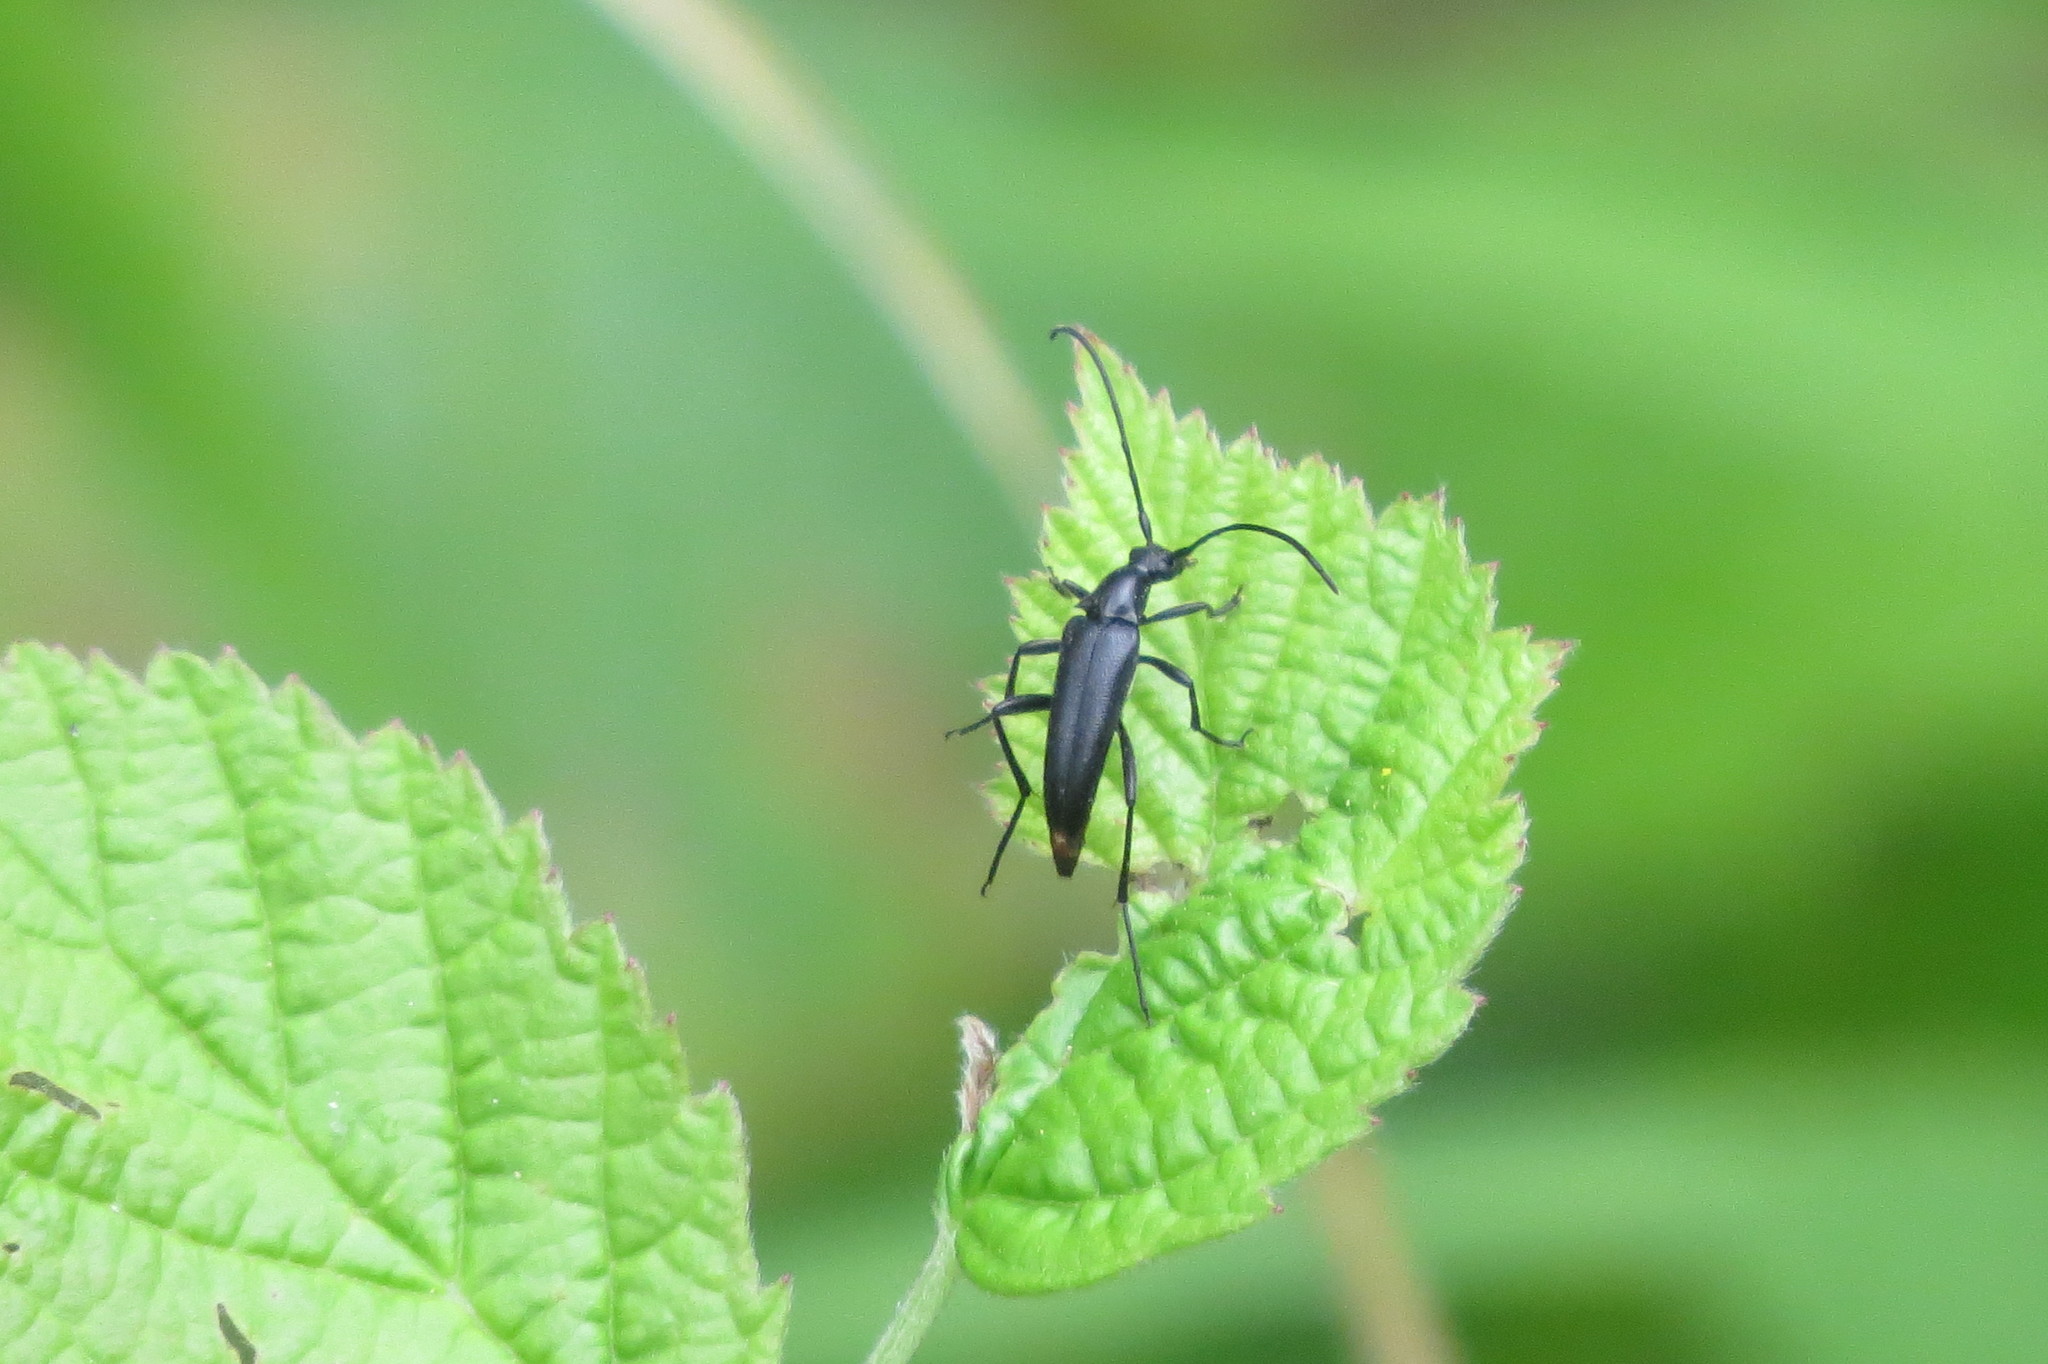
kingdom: Animalia
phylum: Arthropoda
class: Insecta
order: Coleoptera
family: Cerambycidae
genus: Stenurella
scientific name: Stenurella nigra
